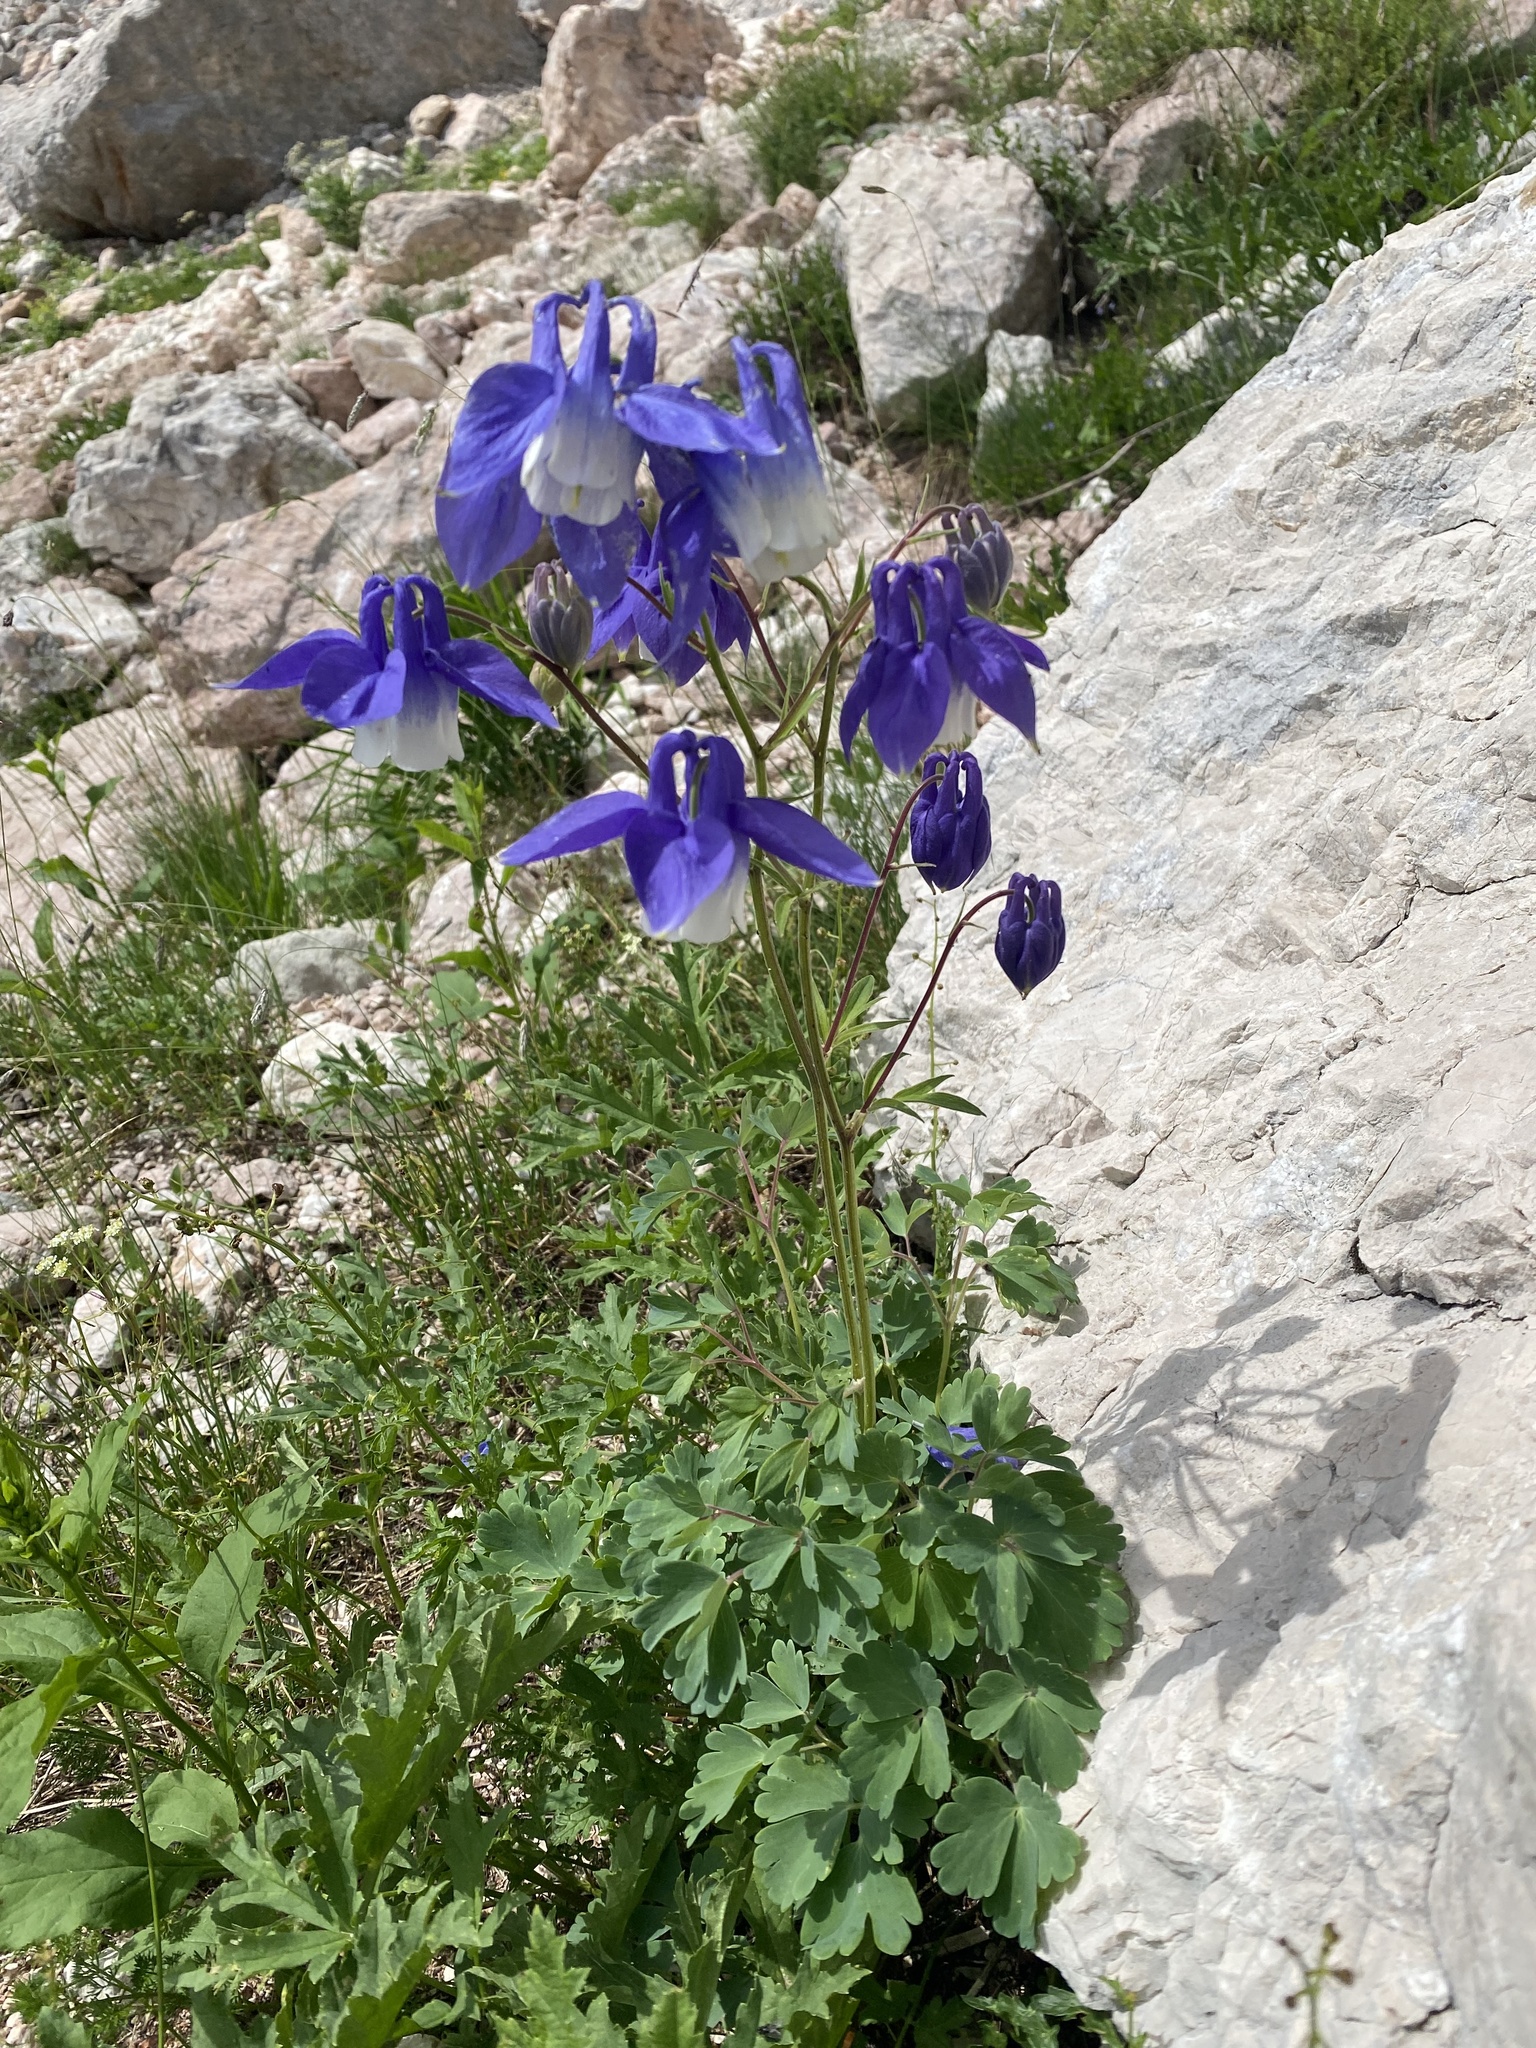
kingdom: Plantae
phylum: Tracheophyta
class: Magnoliopsida
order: Ranunculales
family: Ranunculaceae
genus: Aquilegia
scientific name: Aquilegia olympica
